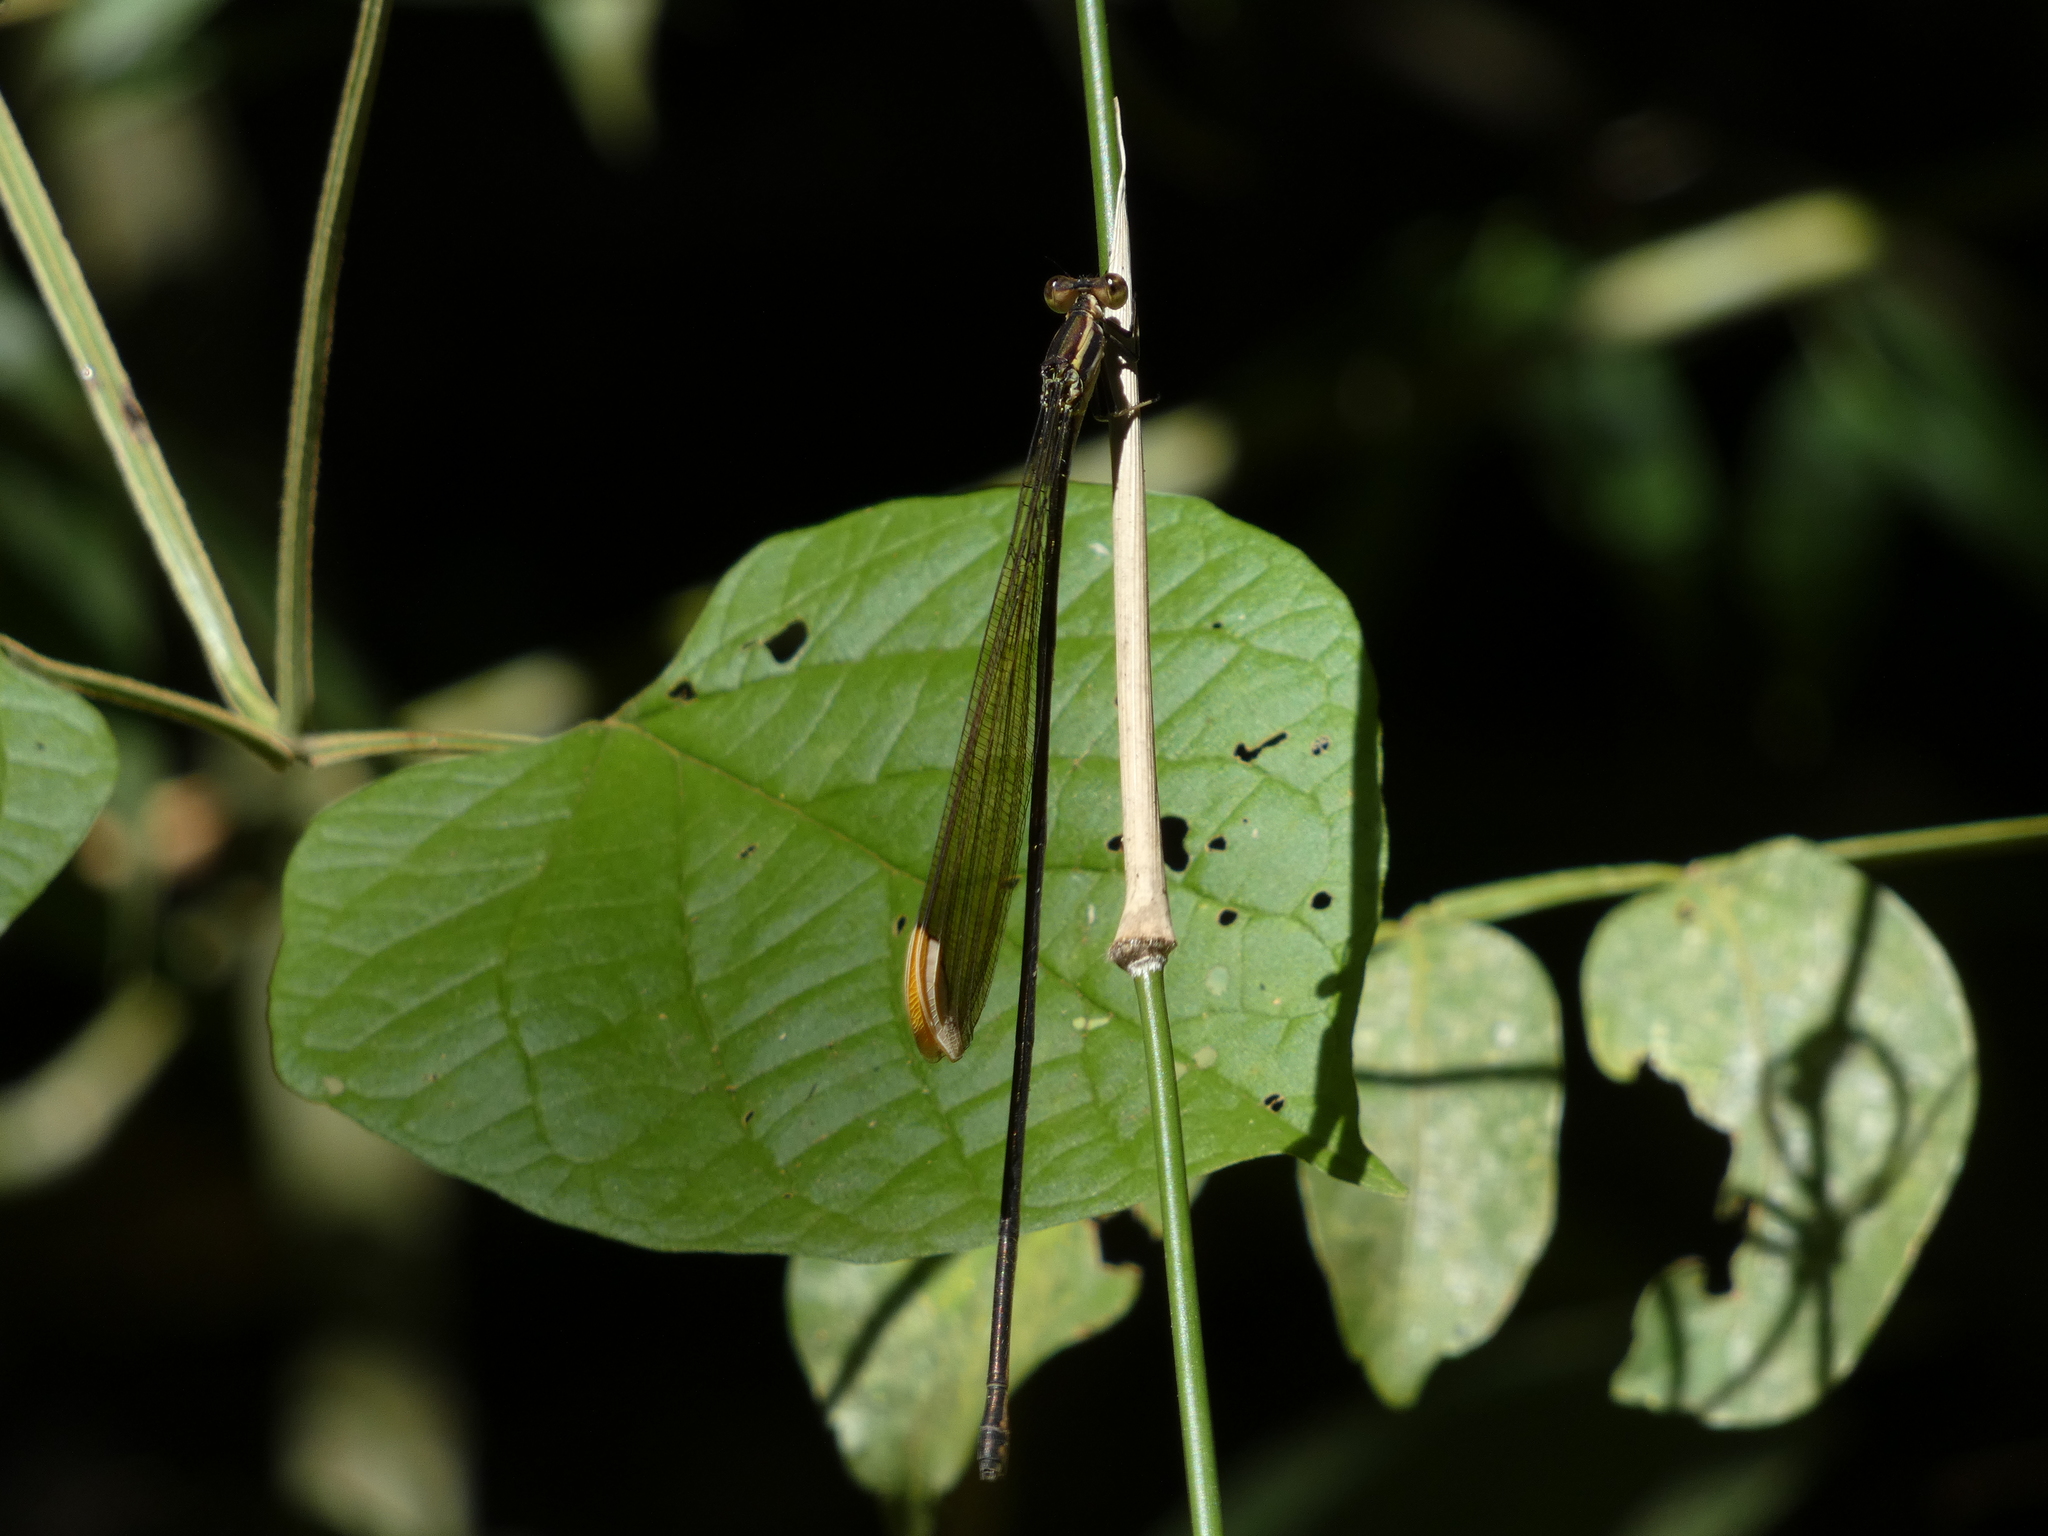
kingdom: Animalia
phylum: Arthropoda
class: Insecta
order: Odonata
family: Coenagrionidae
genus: Mecistogaster
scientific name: Mecistogaster ornata
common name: Ornate helicopter
